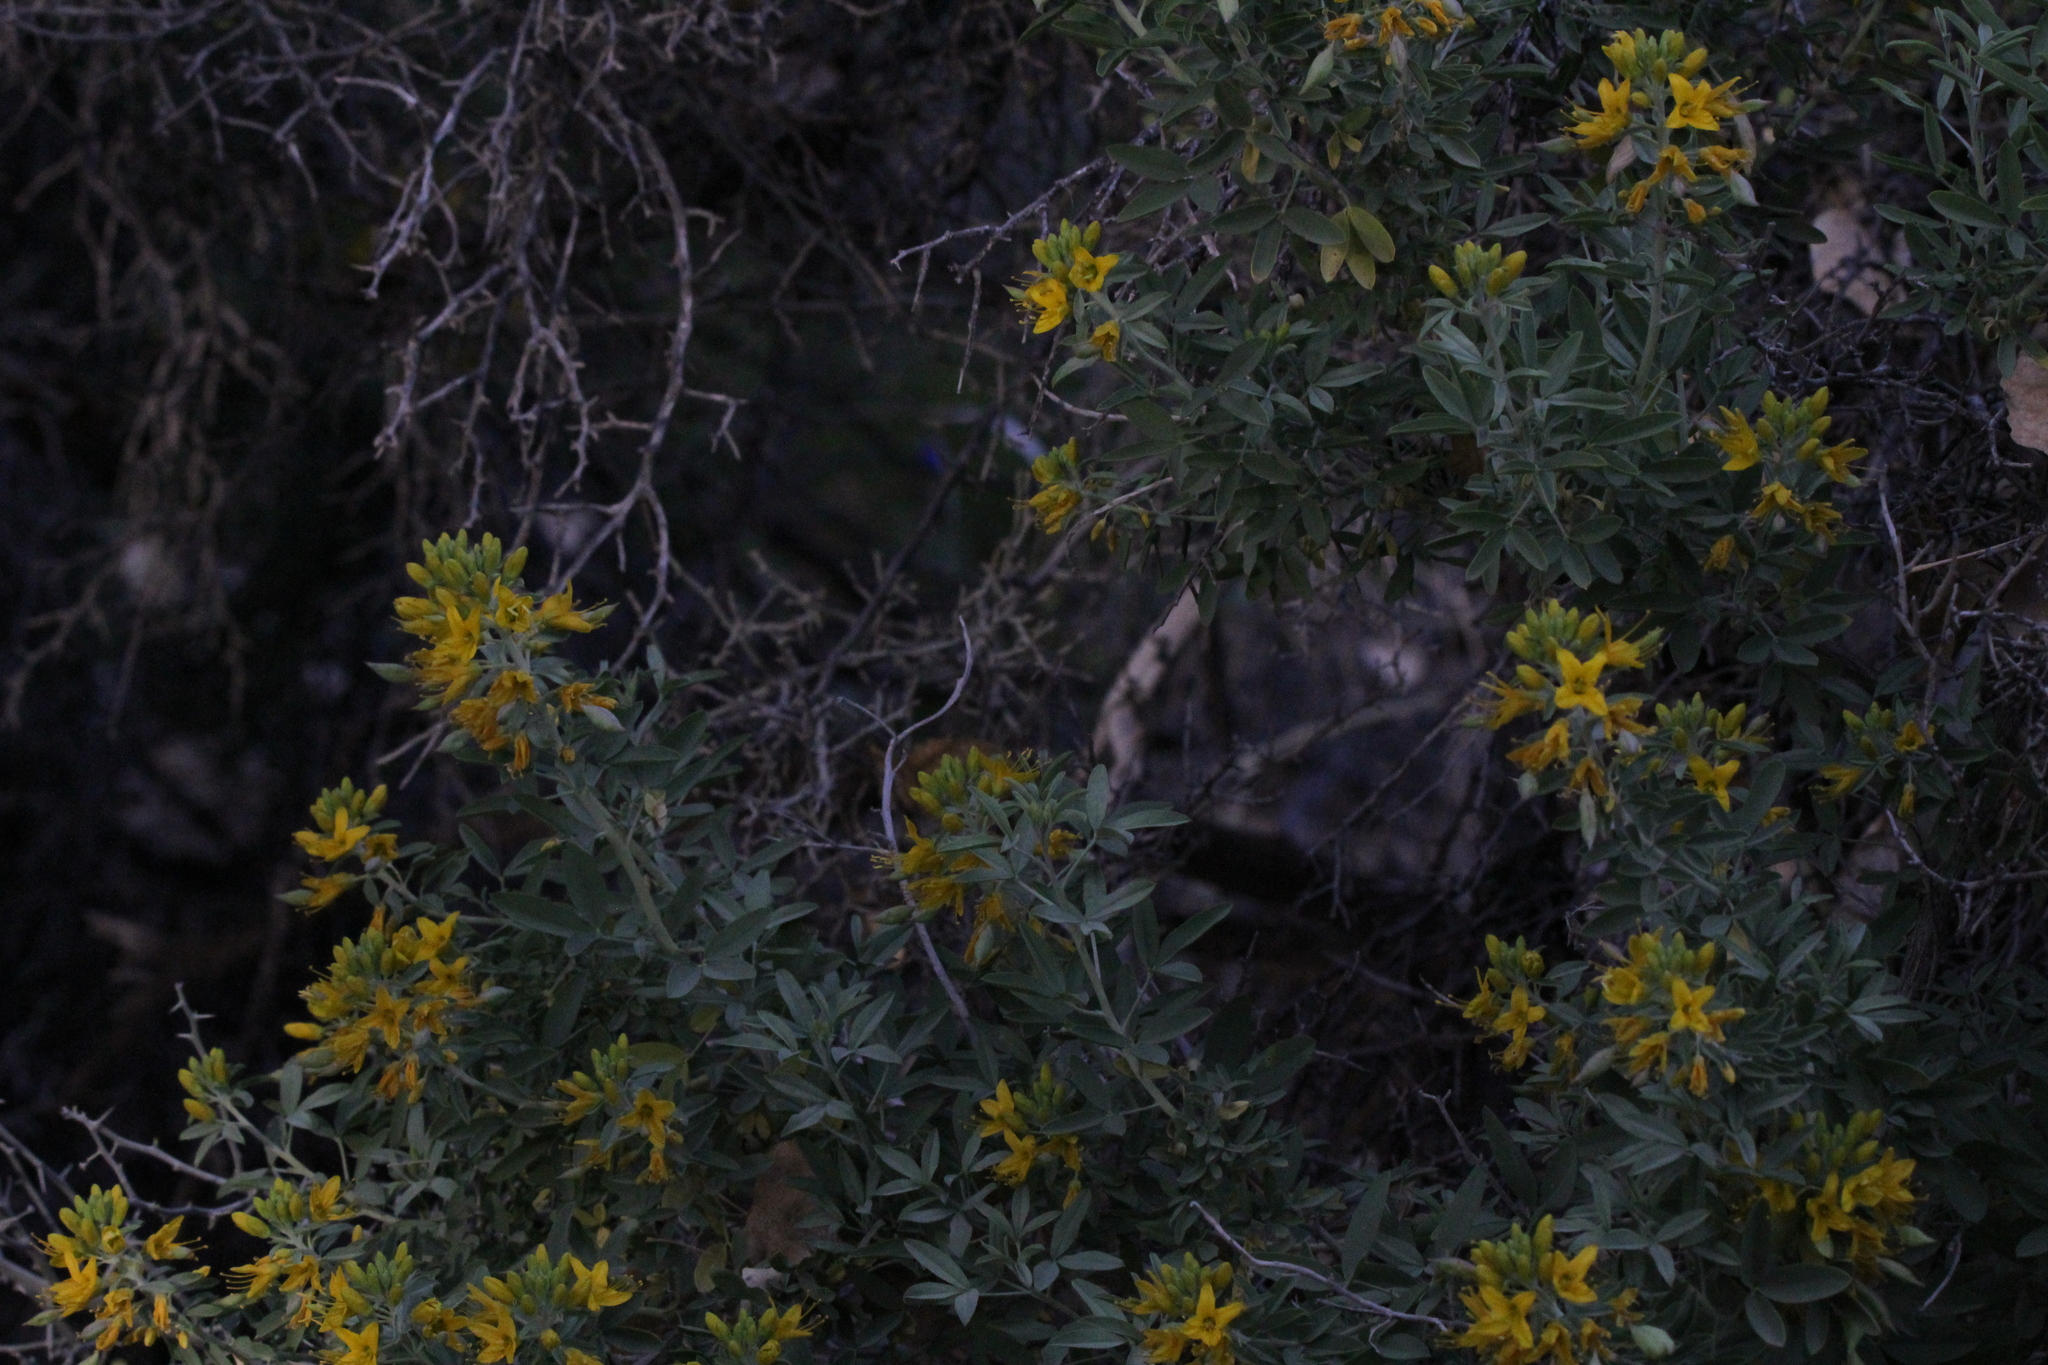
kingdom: Plantae
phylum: Tracheophyta
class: Magnoliopsida
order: Brassicales
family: Cleomaceae
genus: Cleomella
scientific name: Cleomella arborea
